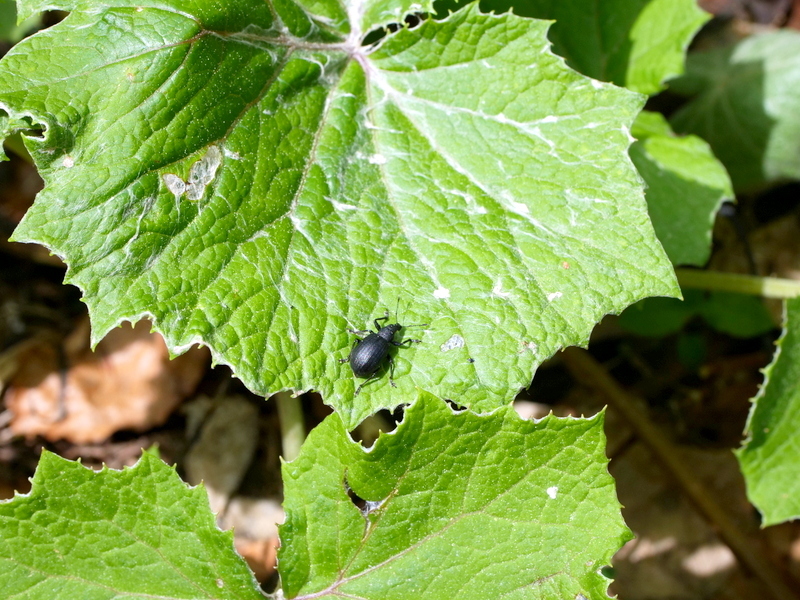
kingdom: Animalia
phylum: Arthropoda
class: Insecta
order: Coleoptera
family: Curculionidae
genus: Liophloeus
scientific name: Liophloeus tessulatus
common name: Weevil
